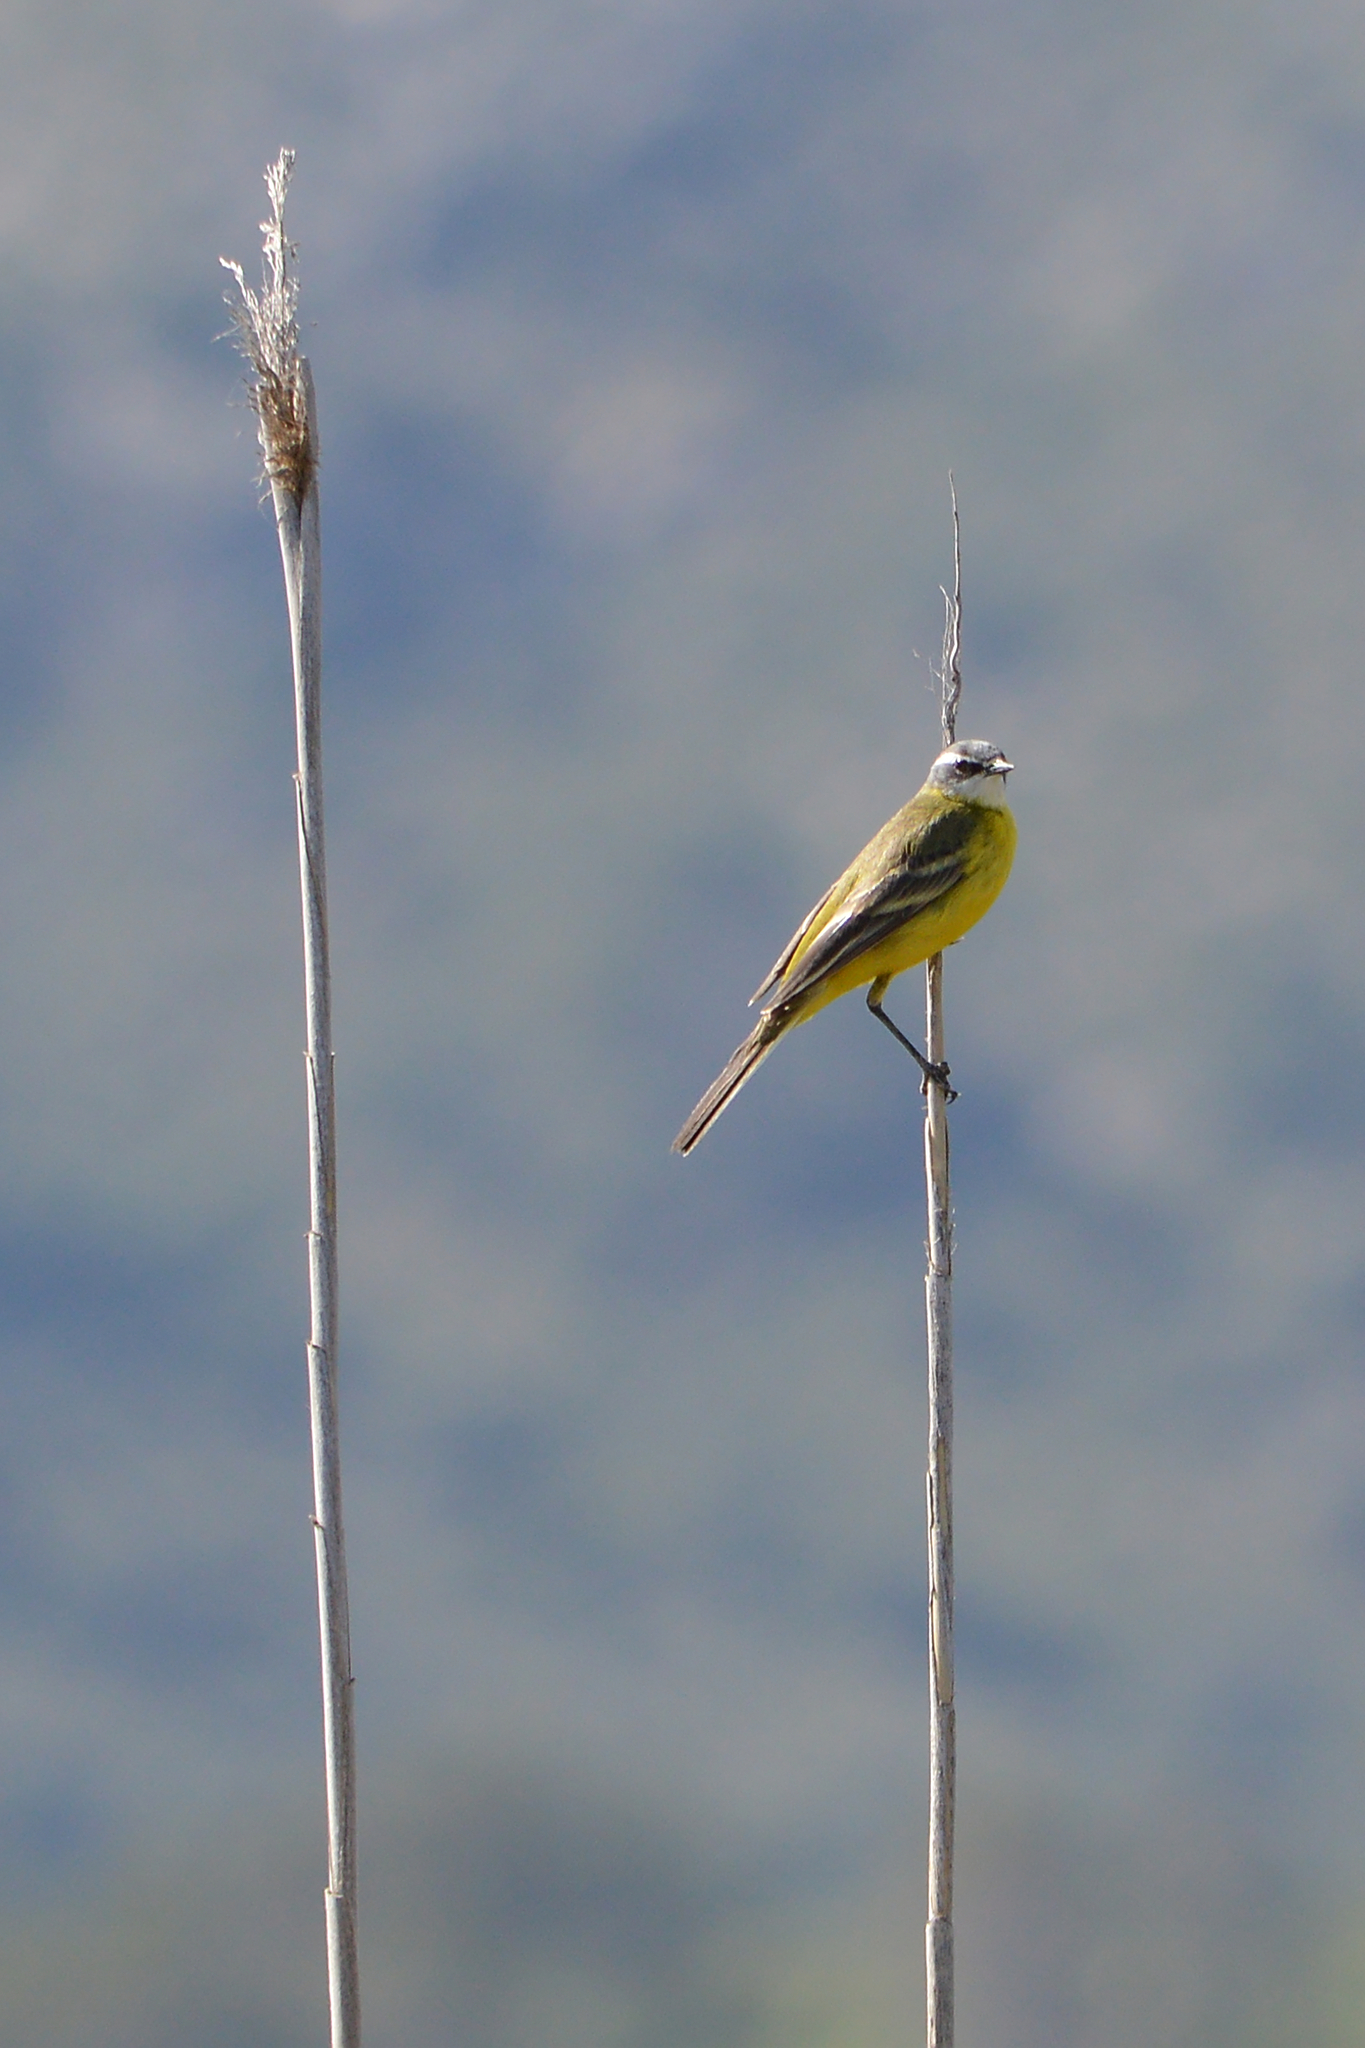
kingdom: Animalia
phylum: Chordata
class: Aves
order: Passeriformes
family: Motacillidae
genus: Motacilla
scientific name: Motacilla flava
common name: Western yellow wagtail
